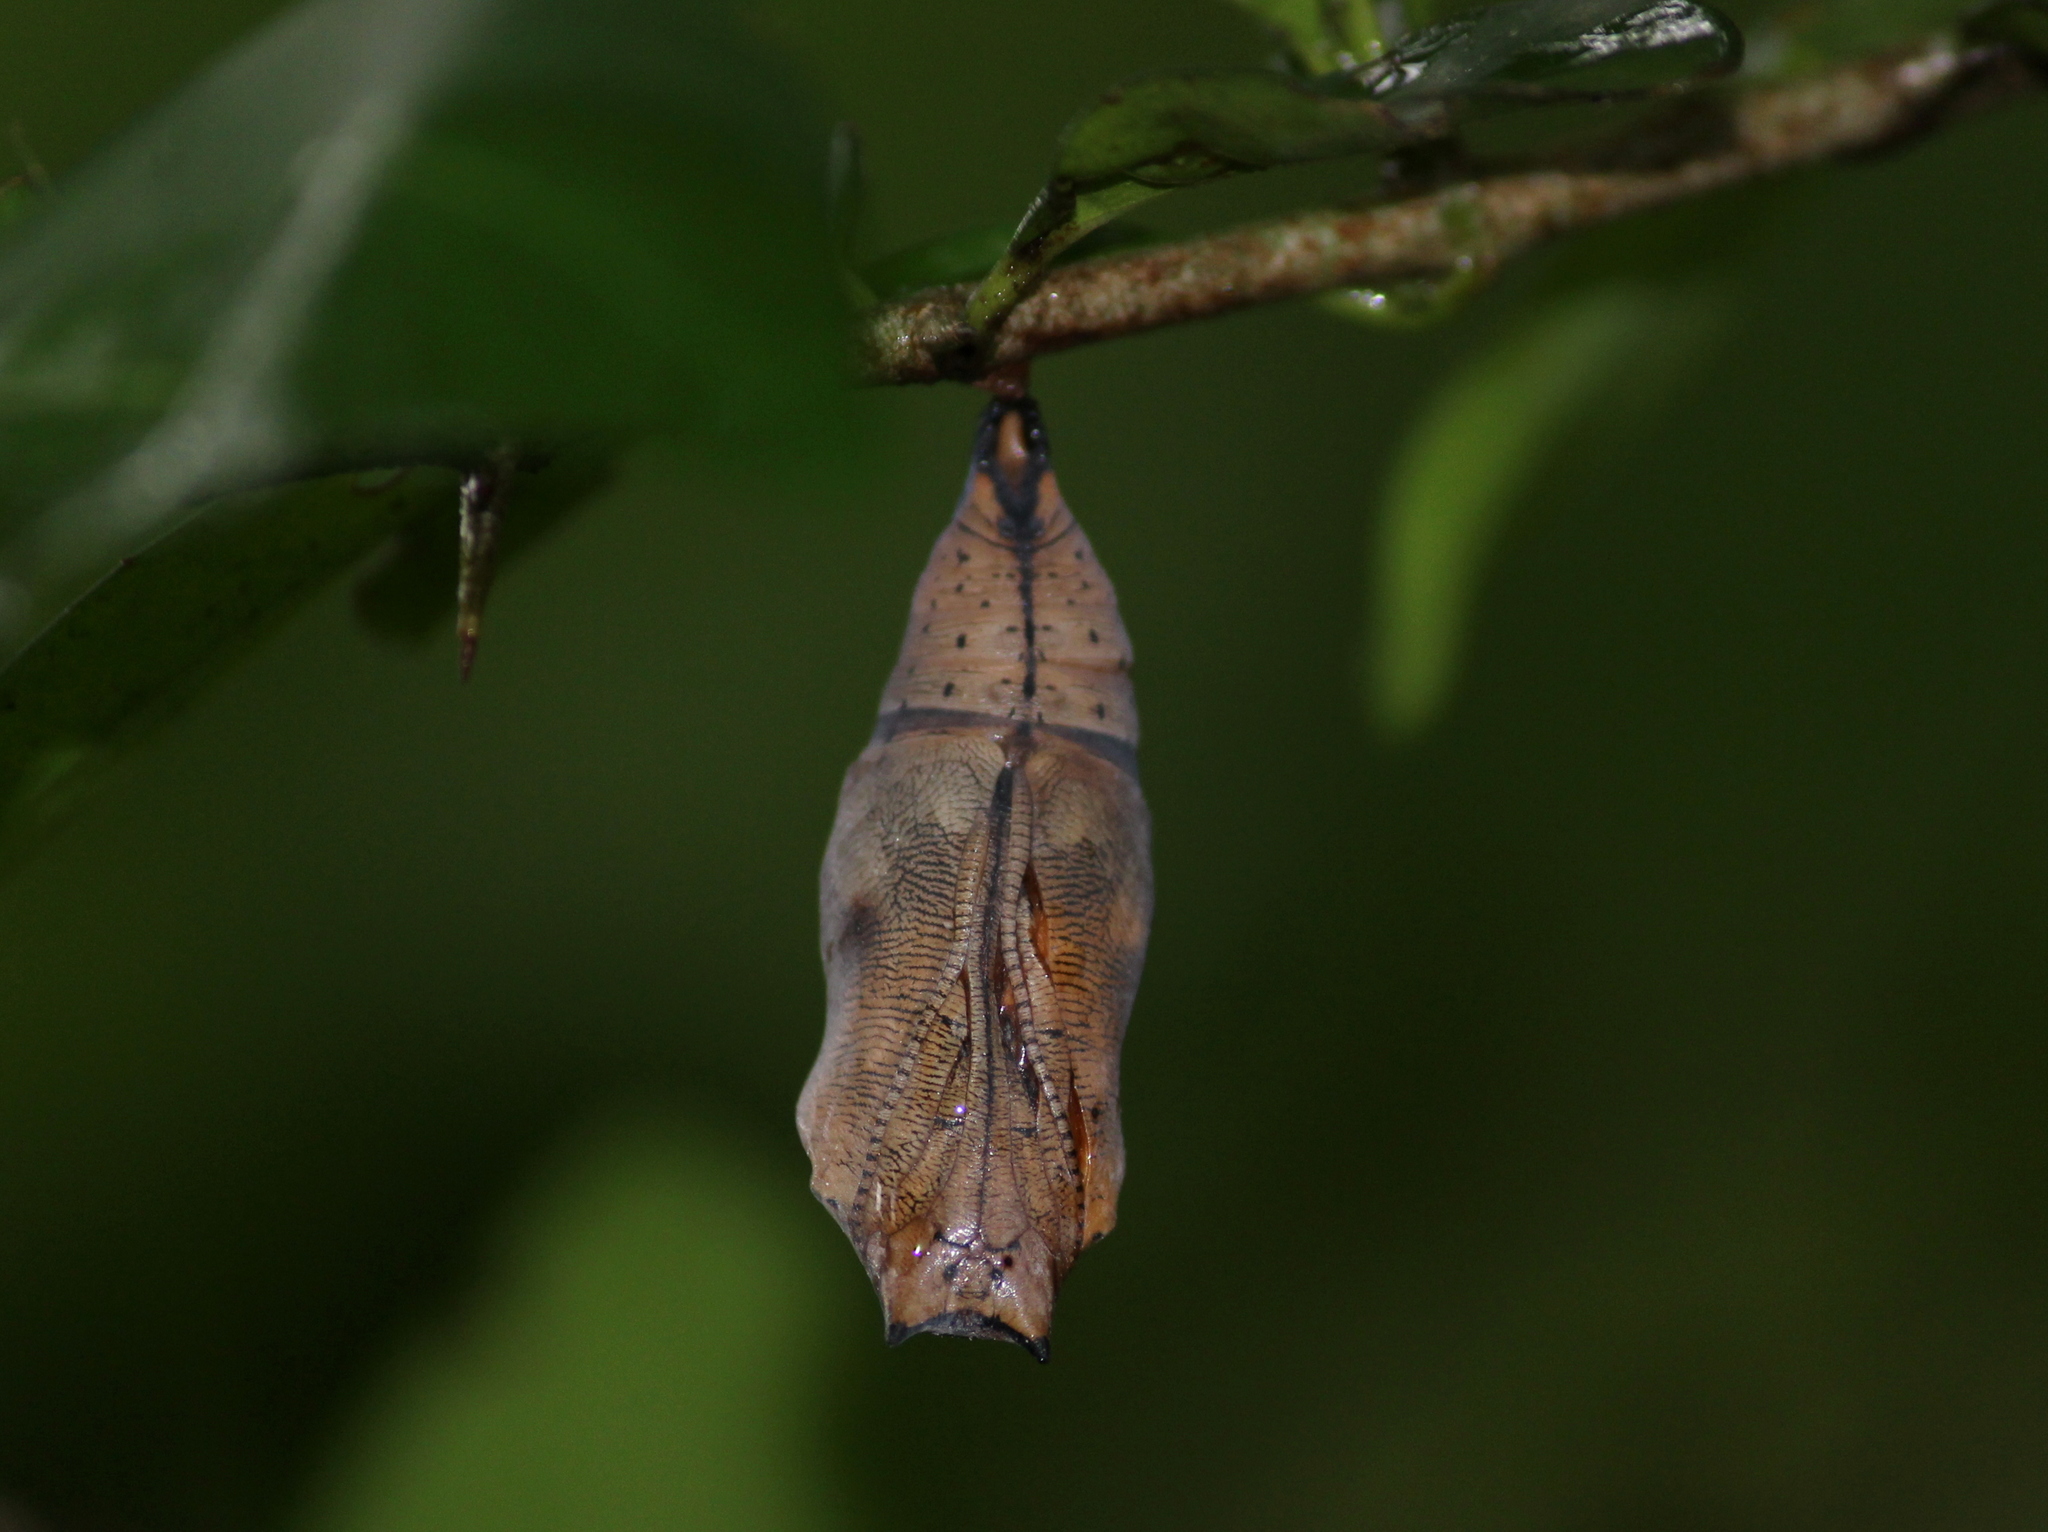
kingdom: Animalia
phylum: Arthropoda
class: Insecta
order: Lepidoptera
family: Nymphalidae
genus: Doleschallia
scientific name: Doleschallia bisaltide
